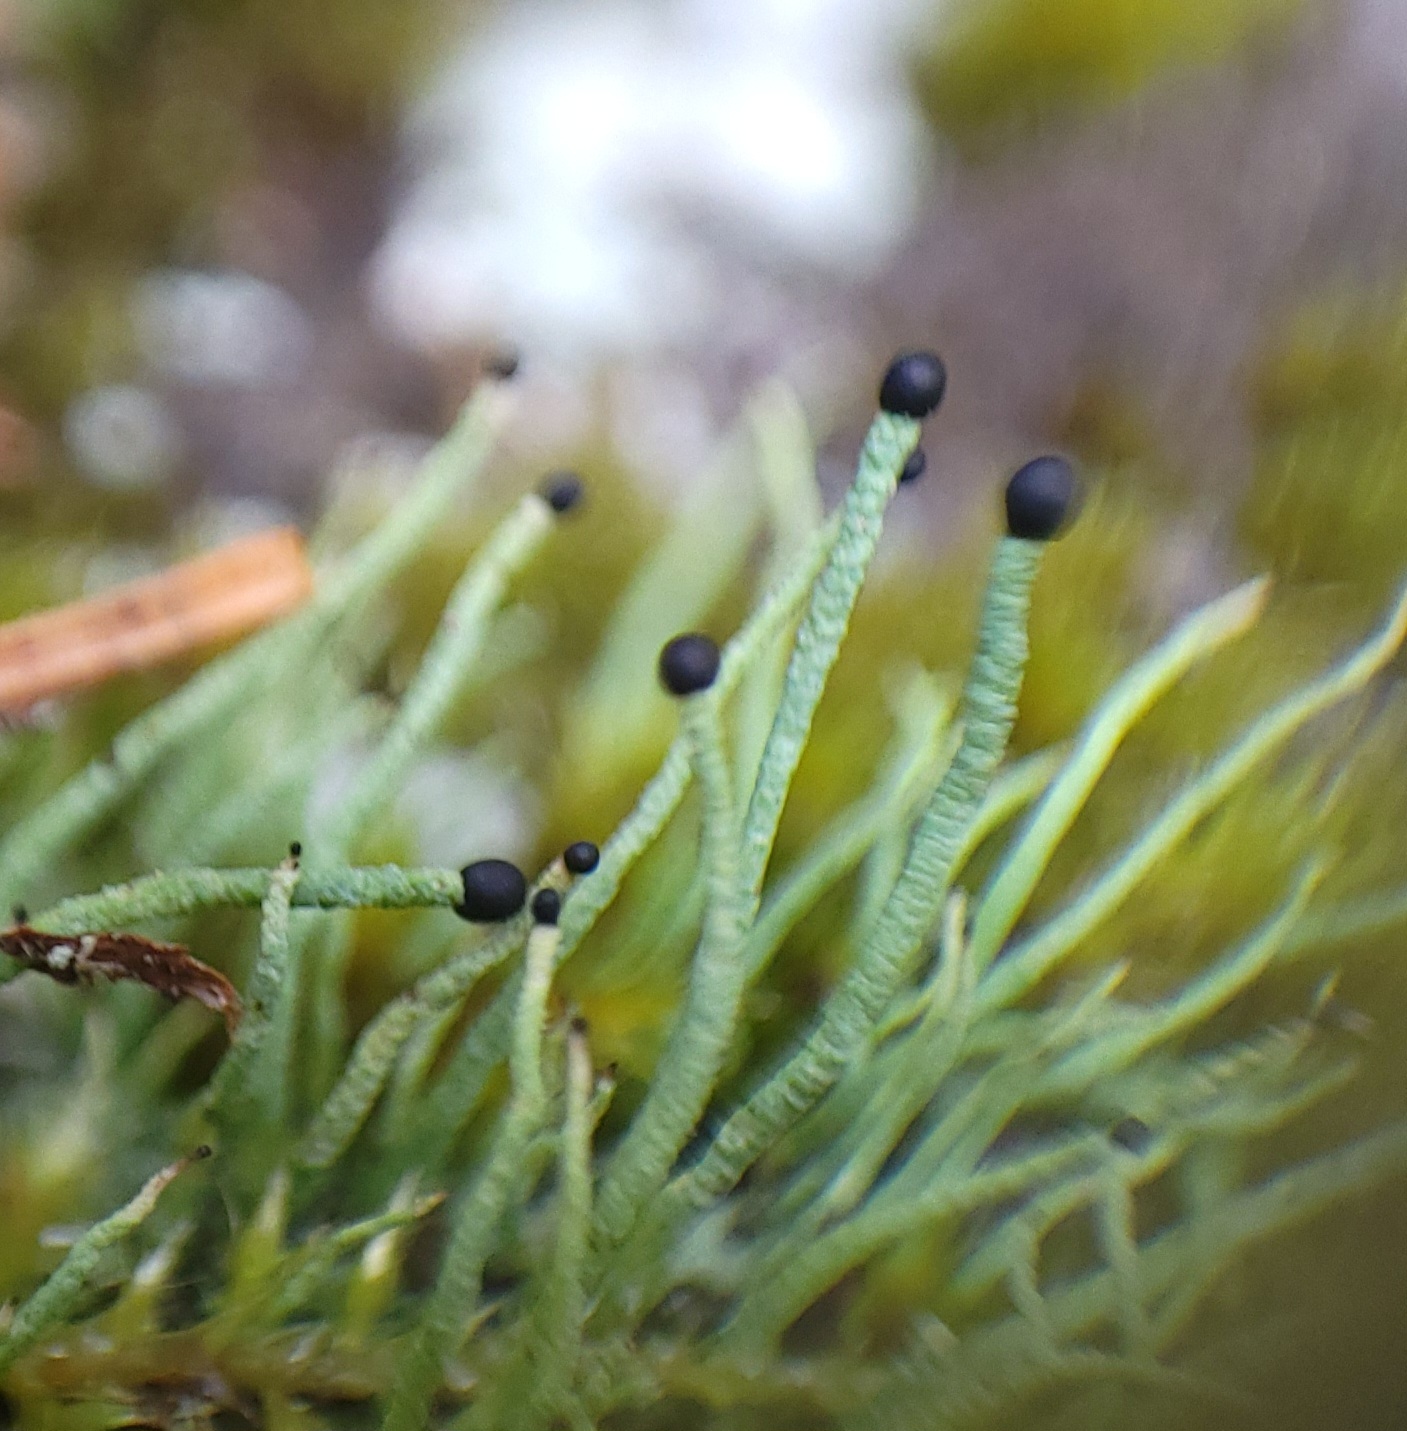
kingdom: Fungi
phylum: Ascomycota
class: Lecanoromycetes
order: Lecanorales
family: Cladoniaceae
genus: Pilophorus
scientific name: Pilophorus acicularis
